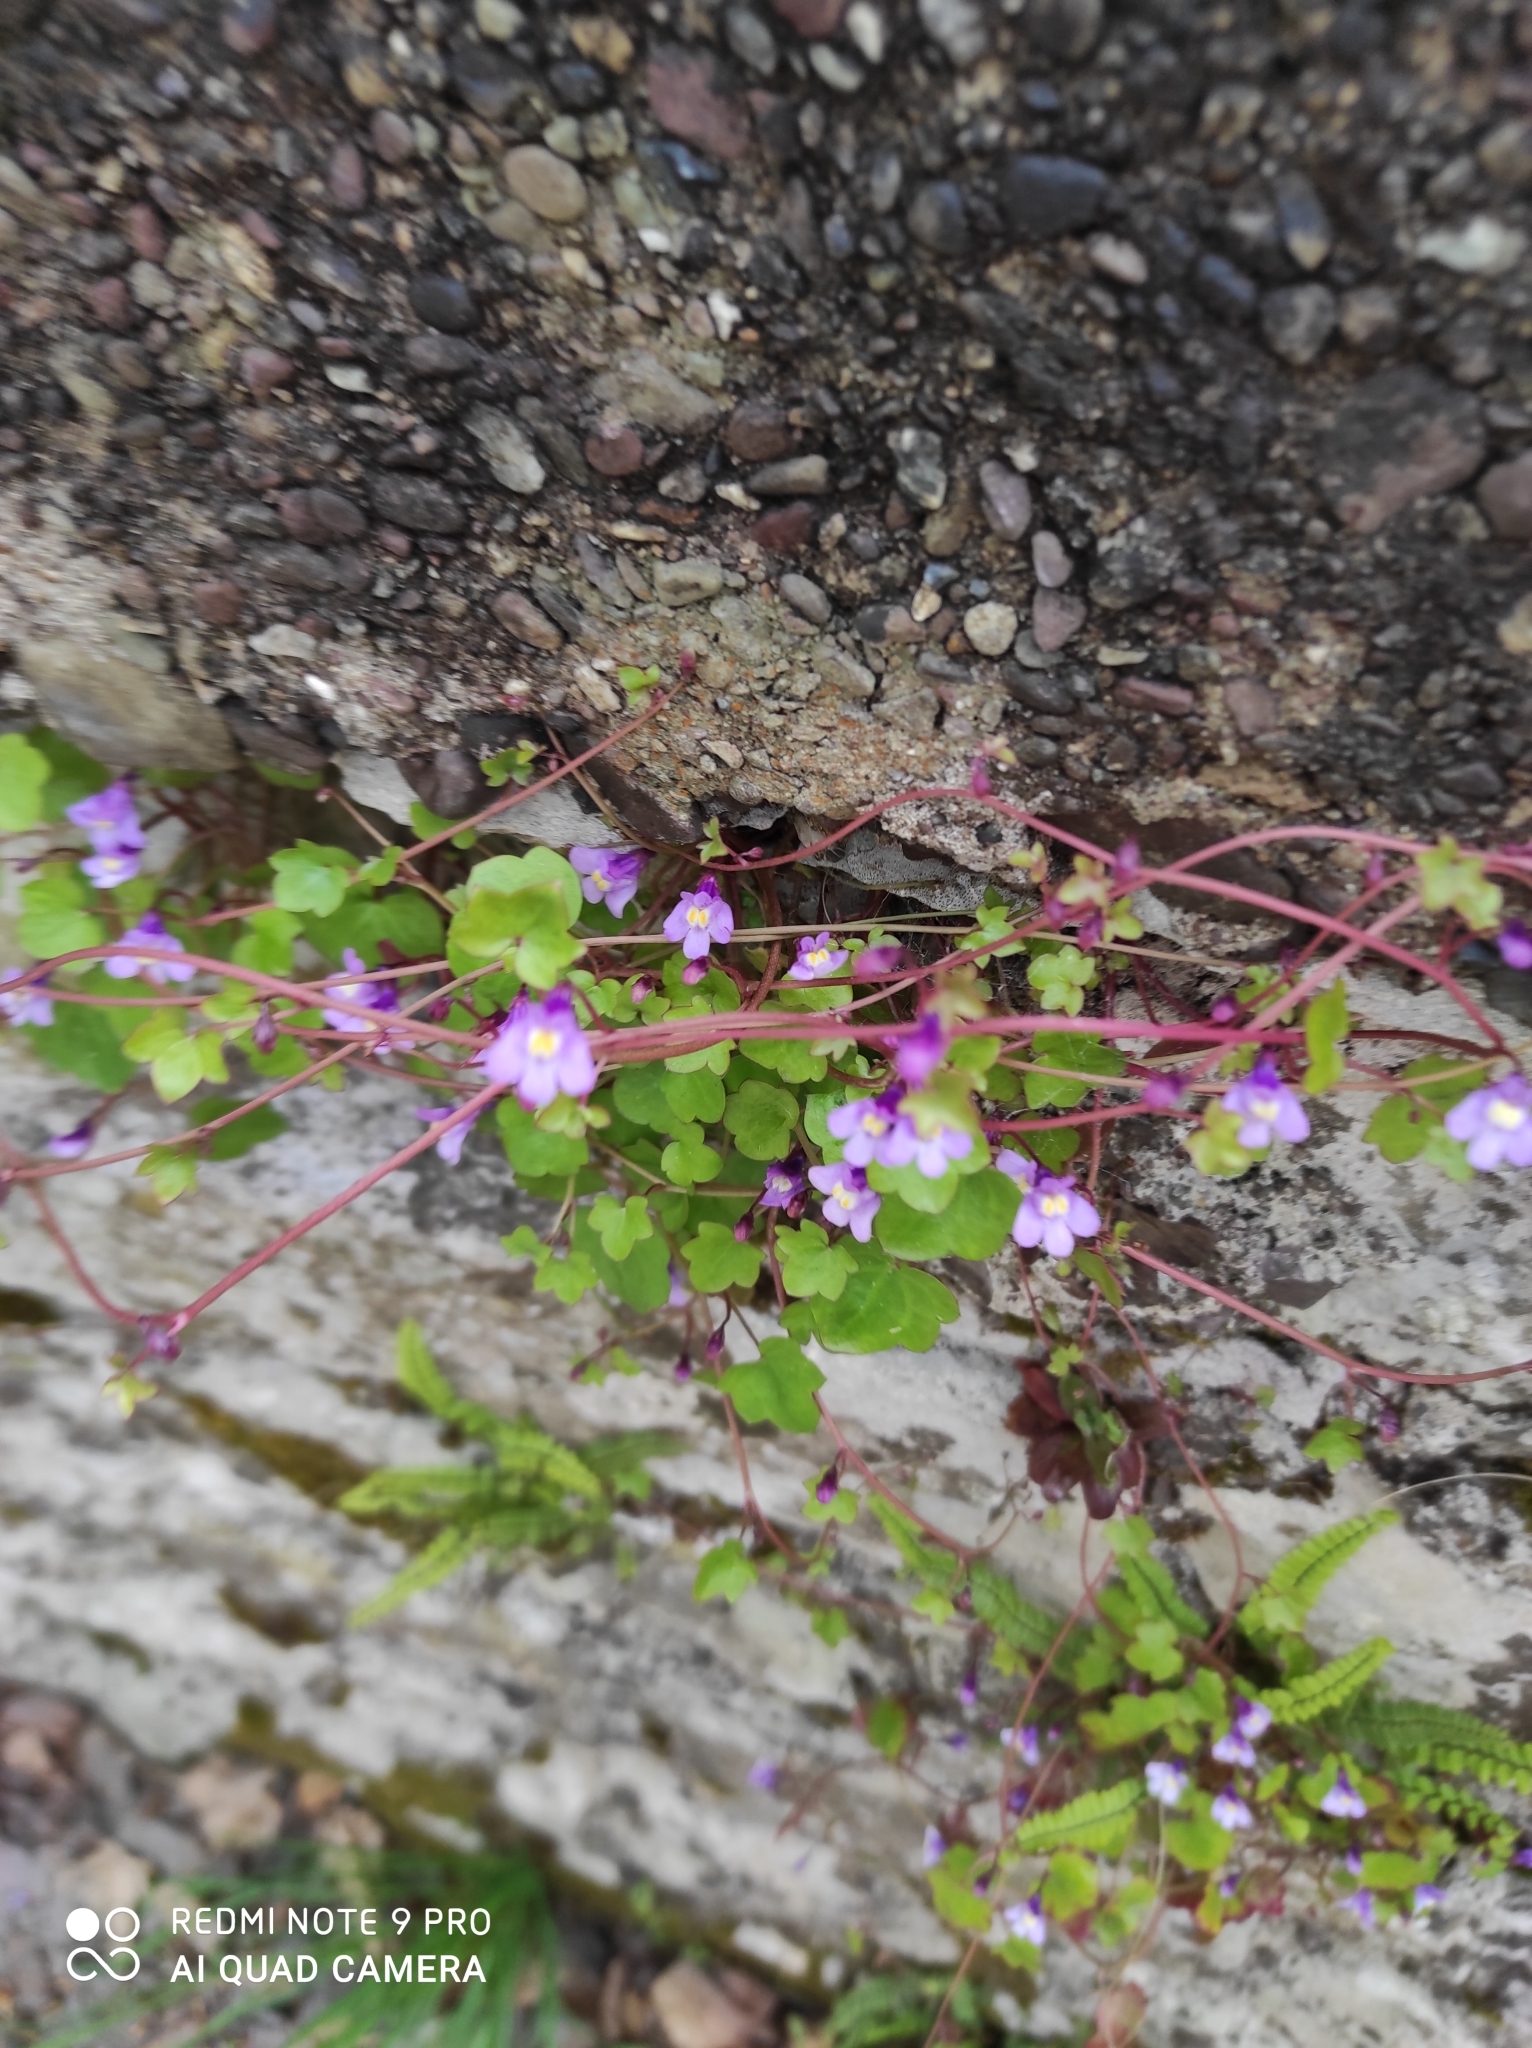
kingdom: Plantae
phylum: Tracheophyta
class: Magnoliopsida
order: Lamiales
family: Plantaginaceae
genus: Cymbalaria
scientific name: Cymbalaria muralis
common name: Ivy-leaved toadflax
